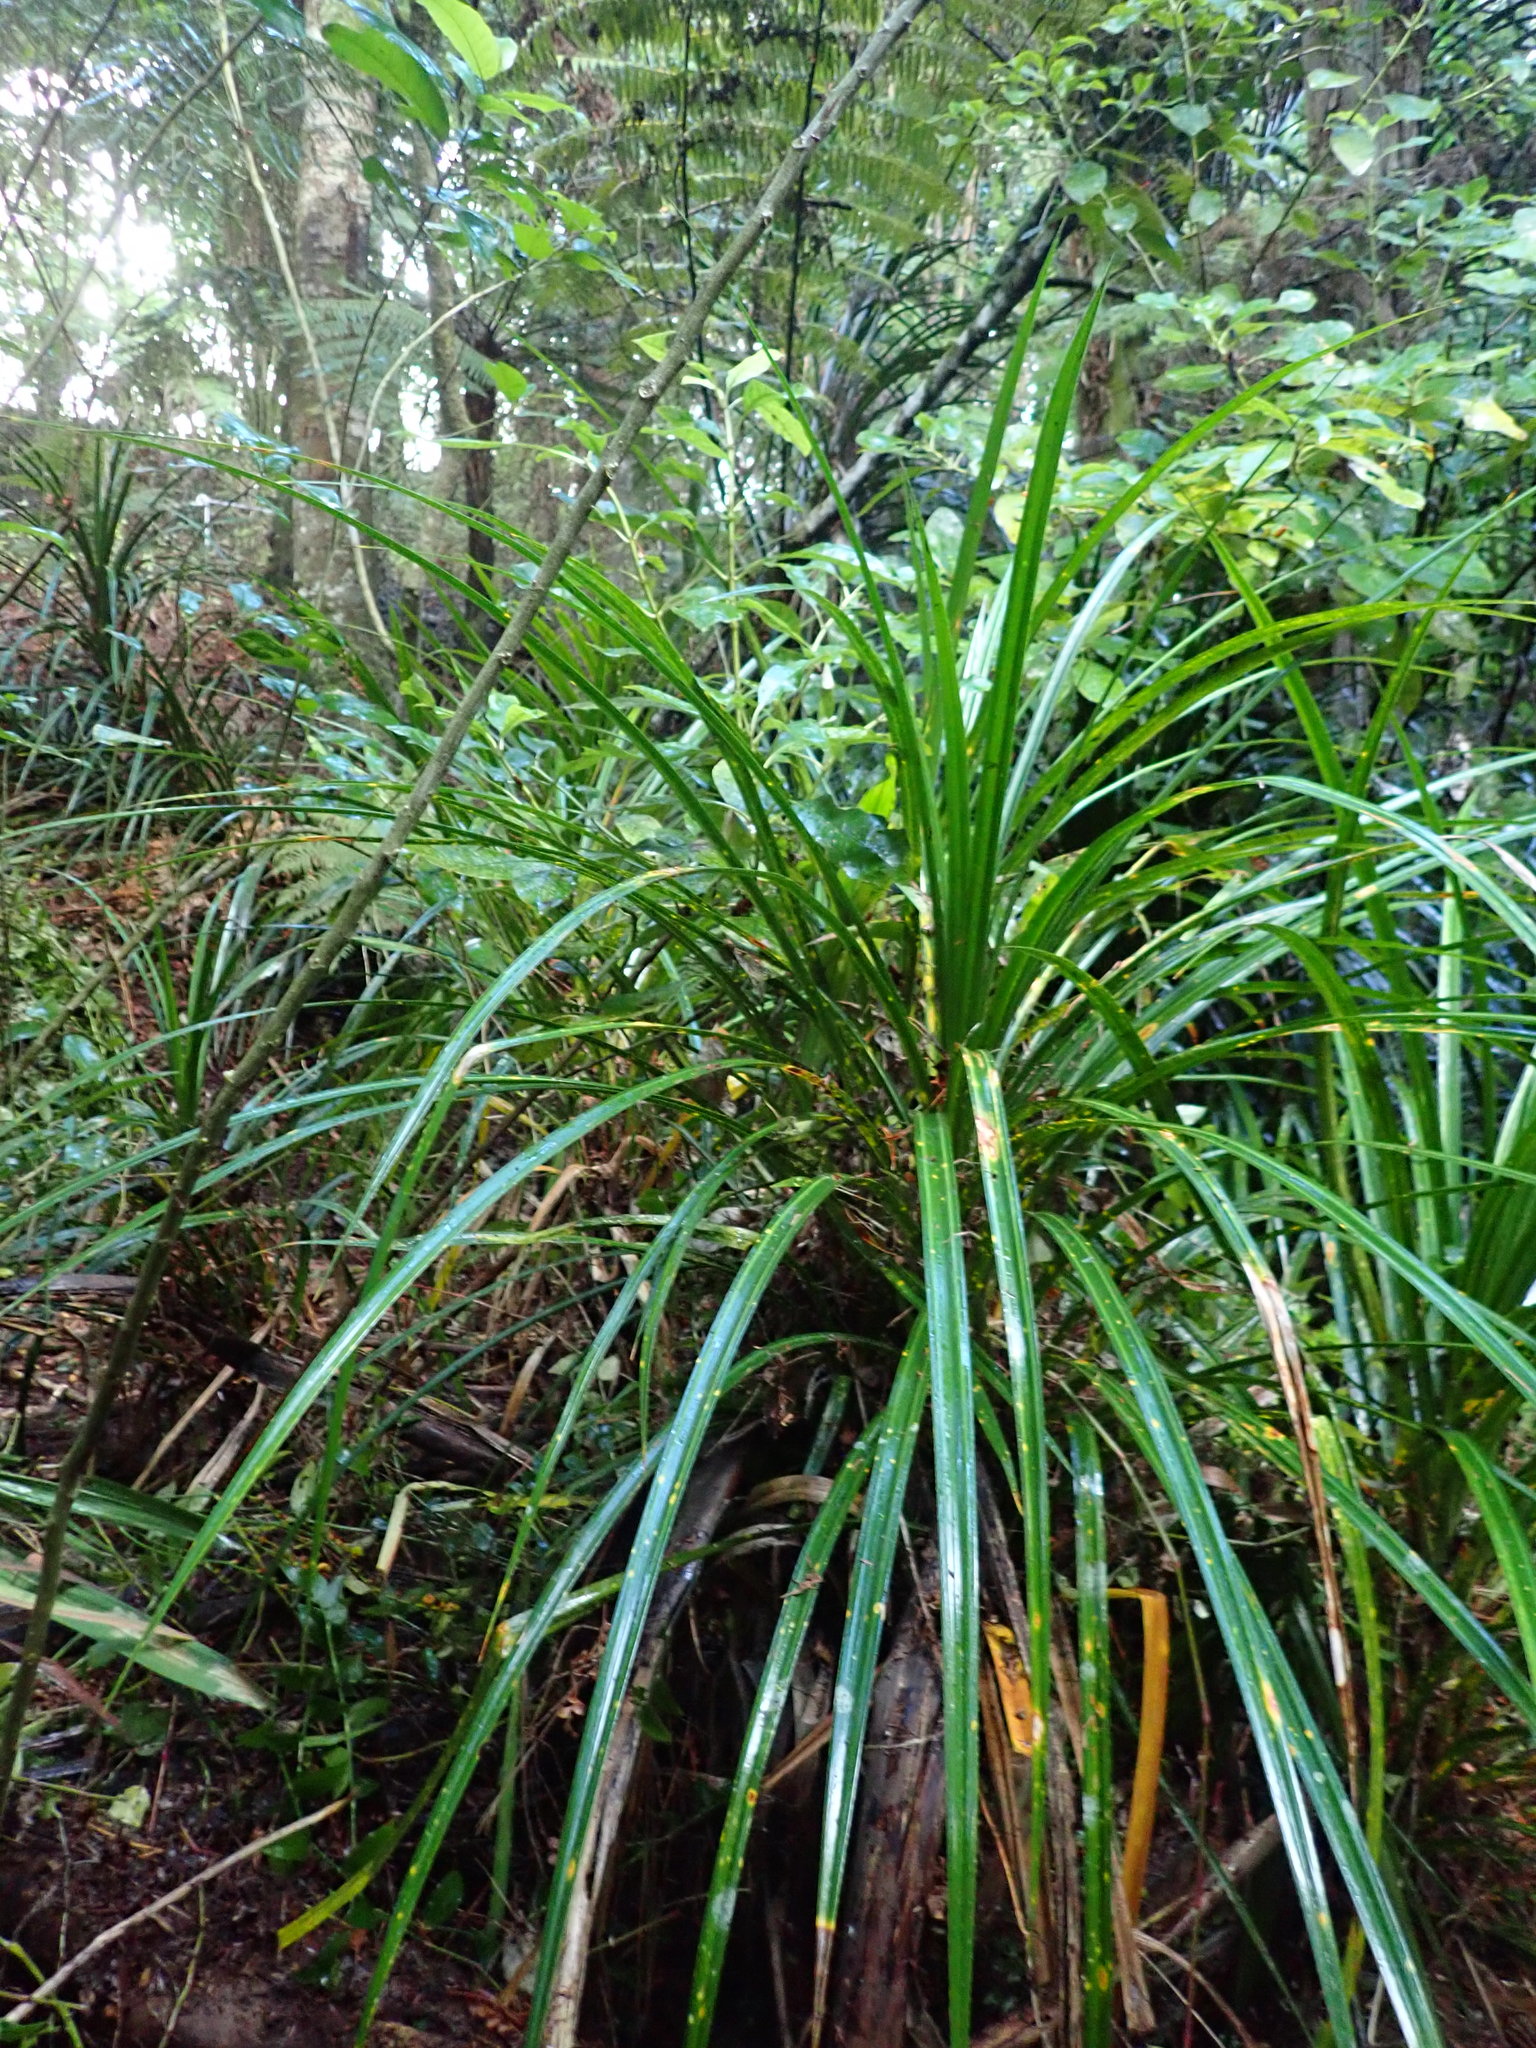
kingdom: Plantae
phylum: Tracheophyta
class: Liliopsida
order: Pandanales
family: Pandanaceae
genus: Freycinetia
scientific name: Freycinetia banksii
